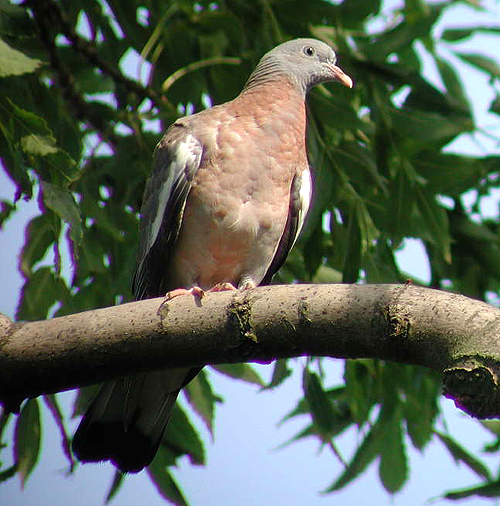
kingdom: Animalia
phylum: Chordata
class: Aves
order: Columbiformes
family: Columbidae
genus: Columba
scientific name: Columba palumbus
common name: Common wood pigeon
